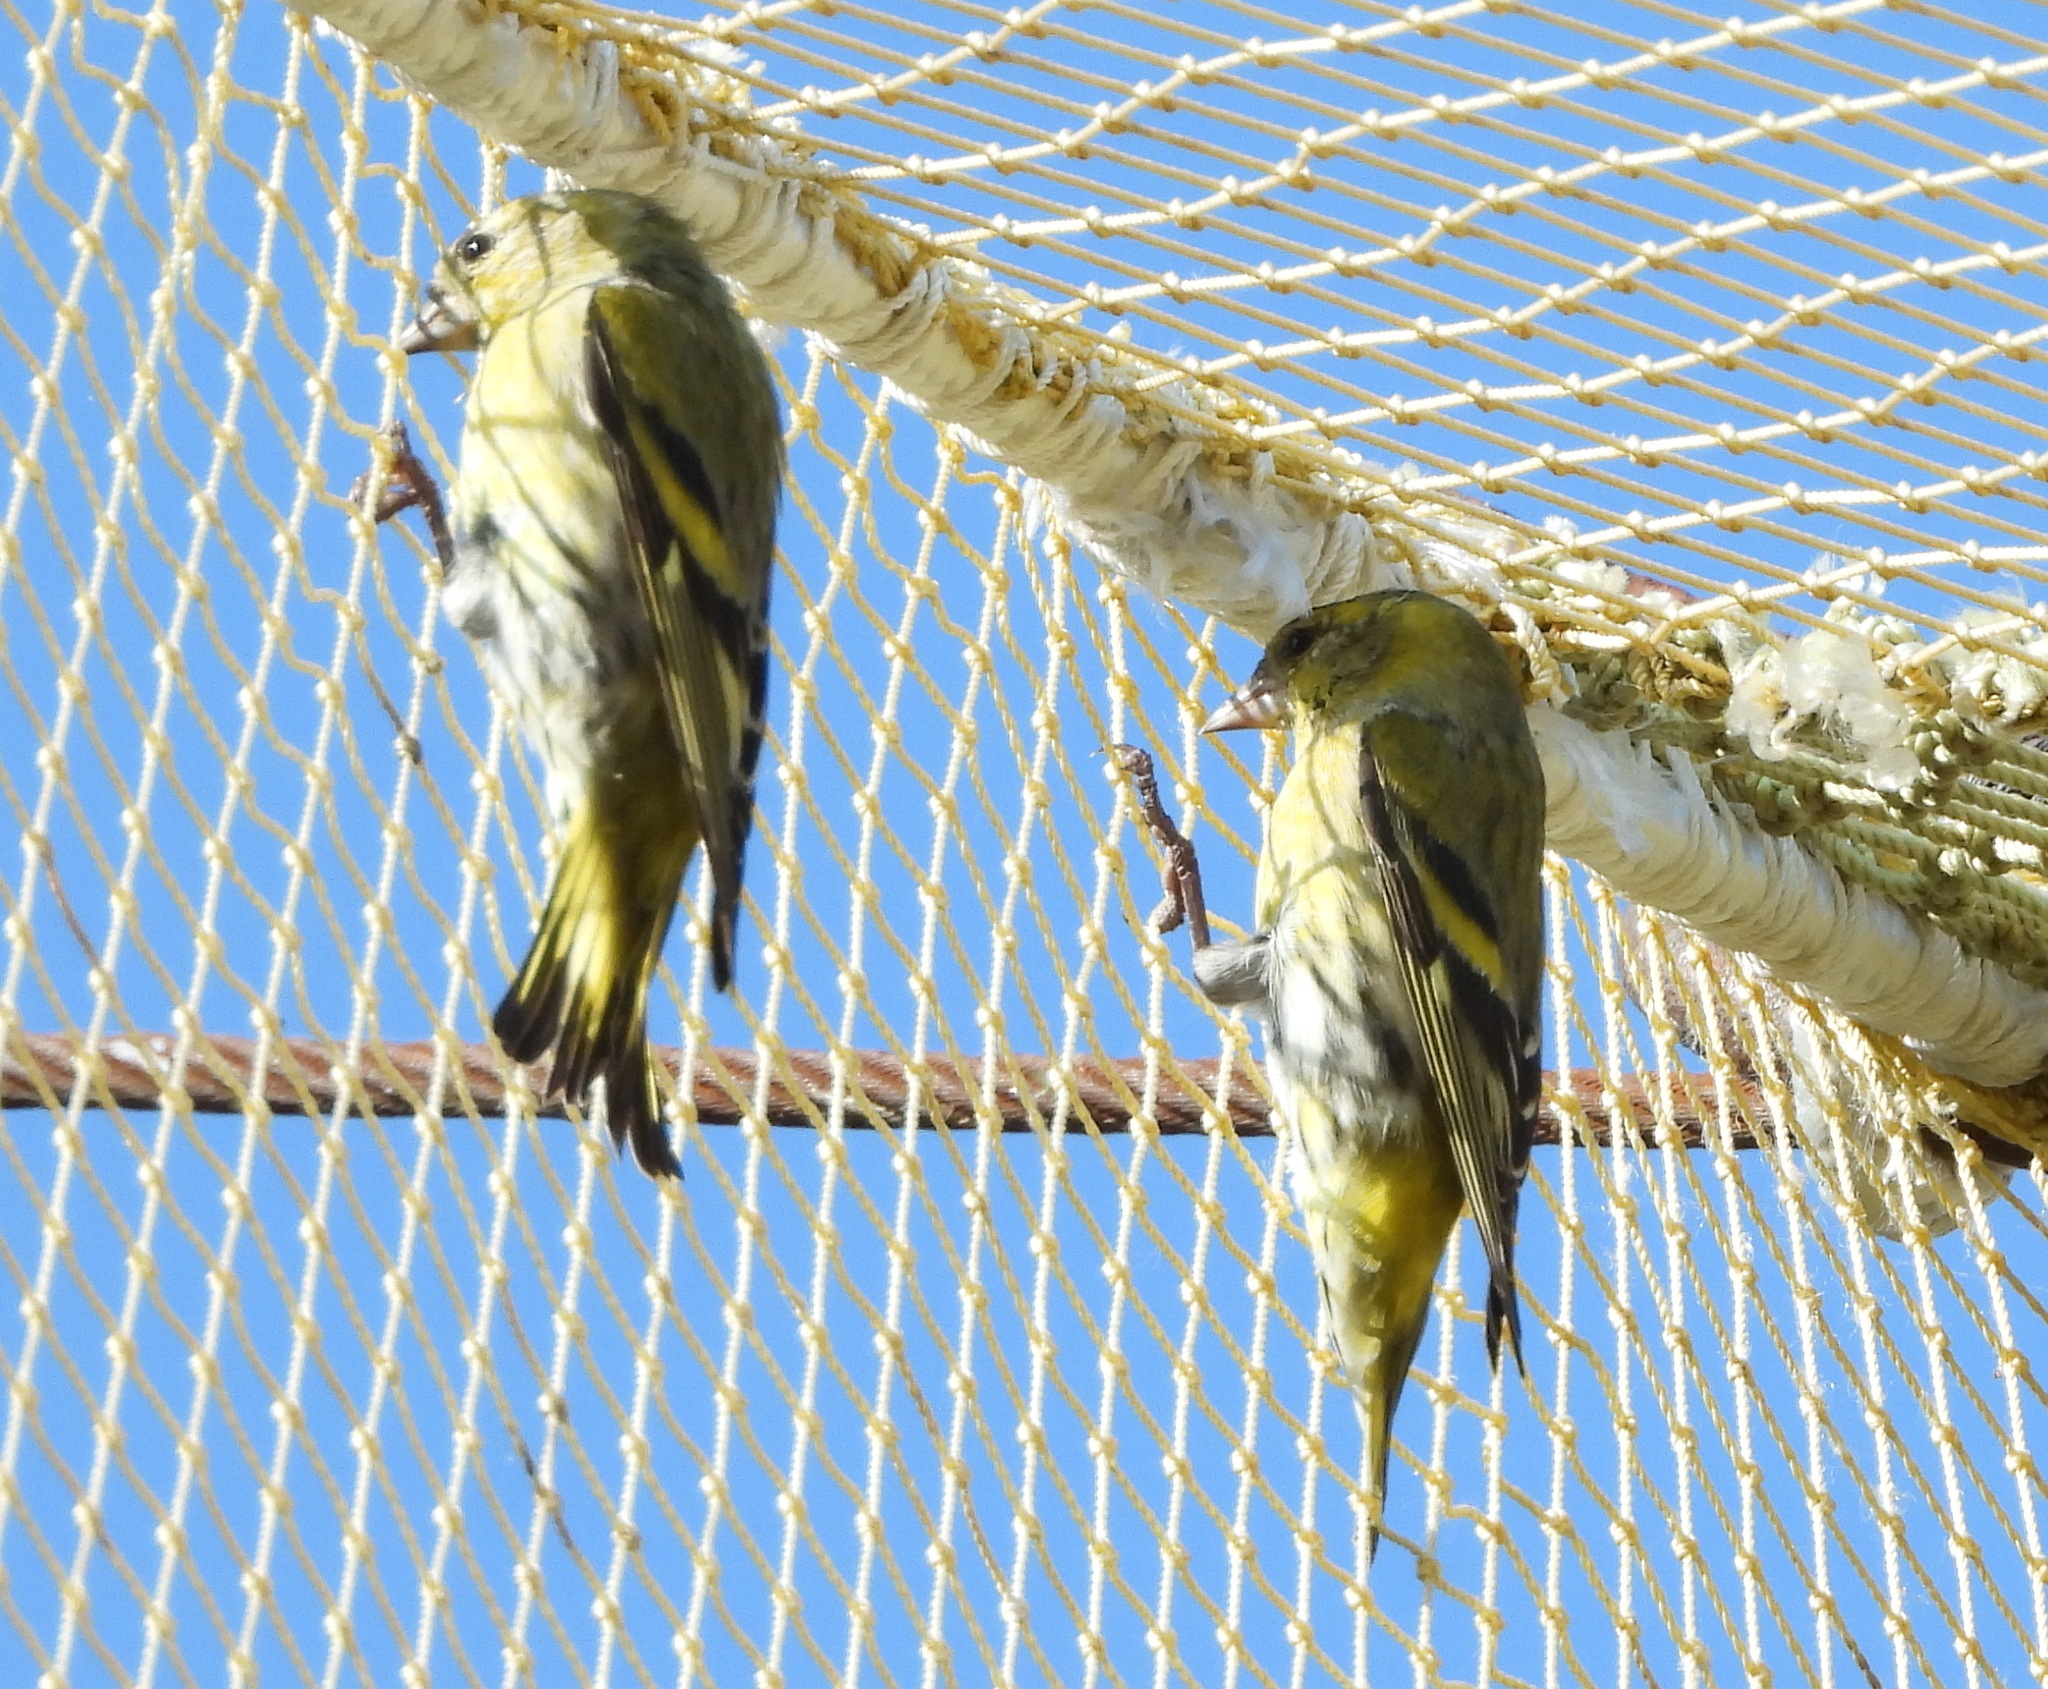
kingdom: Animalia
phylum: Chordata
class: Aves
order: Passeriformes
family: Fringillidae
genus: Spinus
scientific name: Spinus spinus
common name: Eurasian siskin
